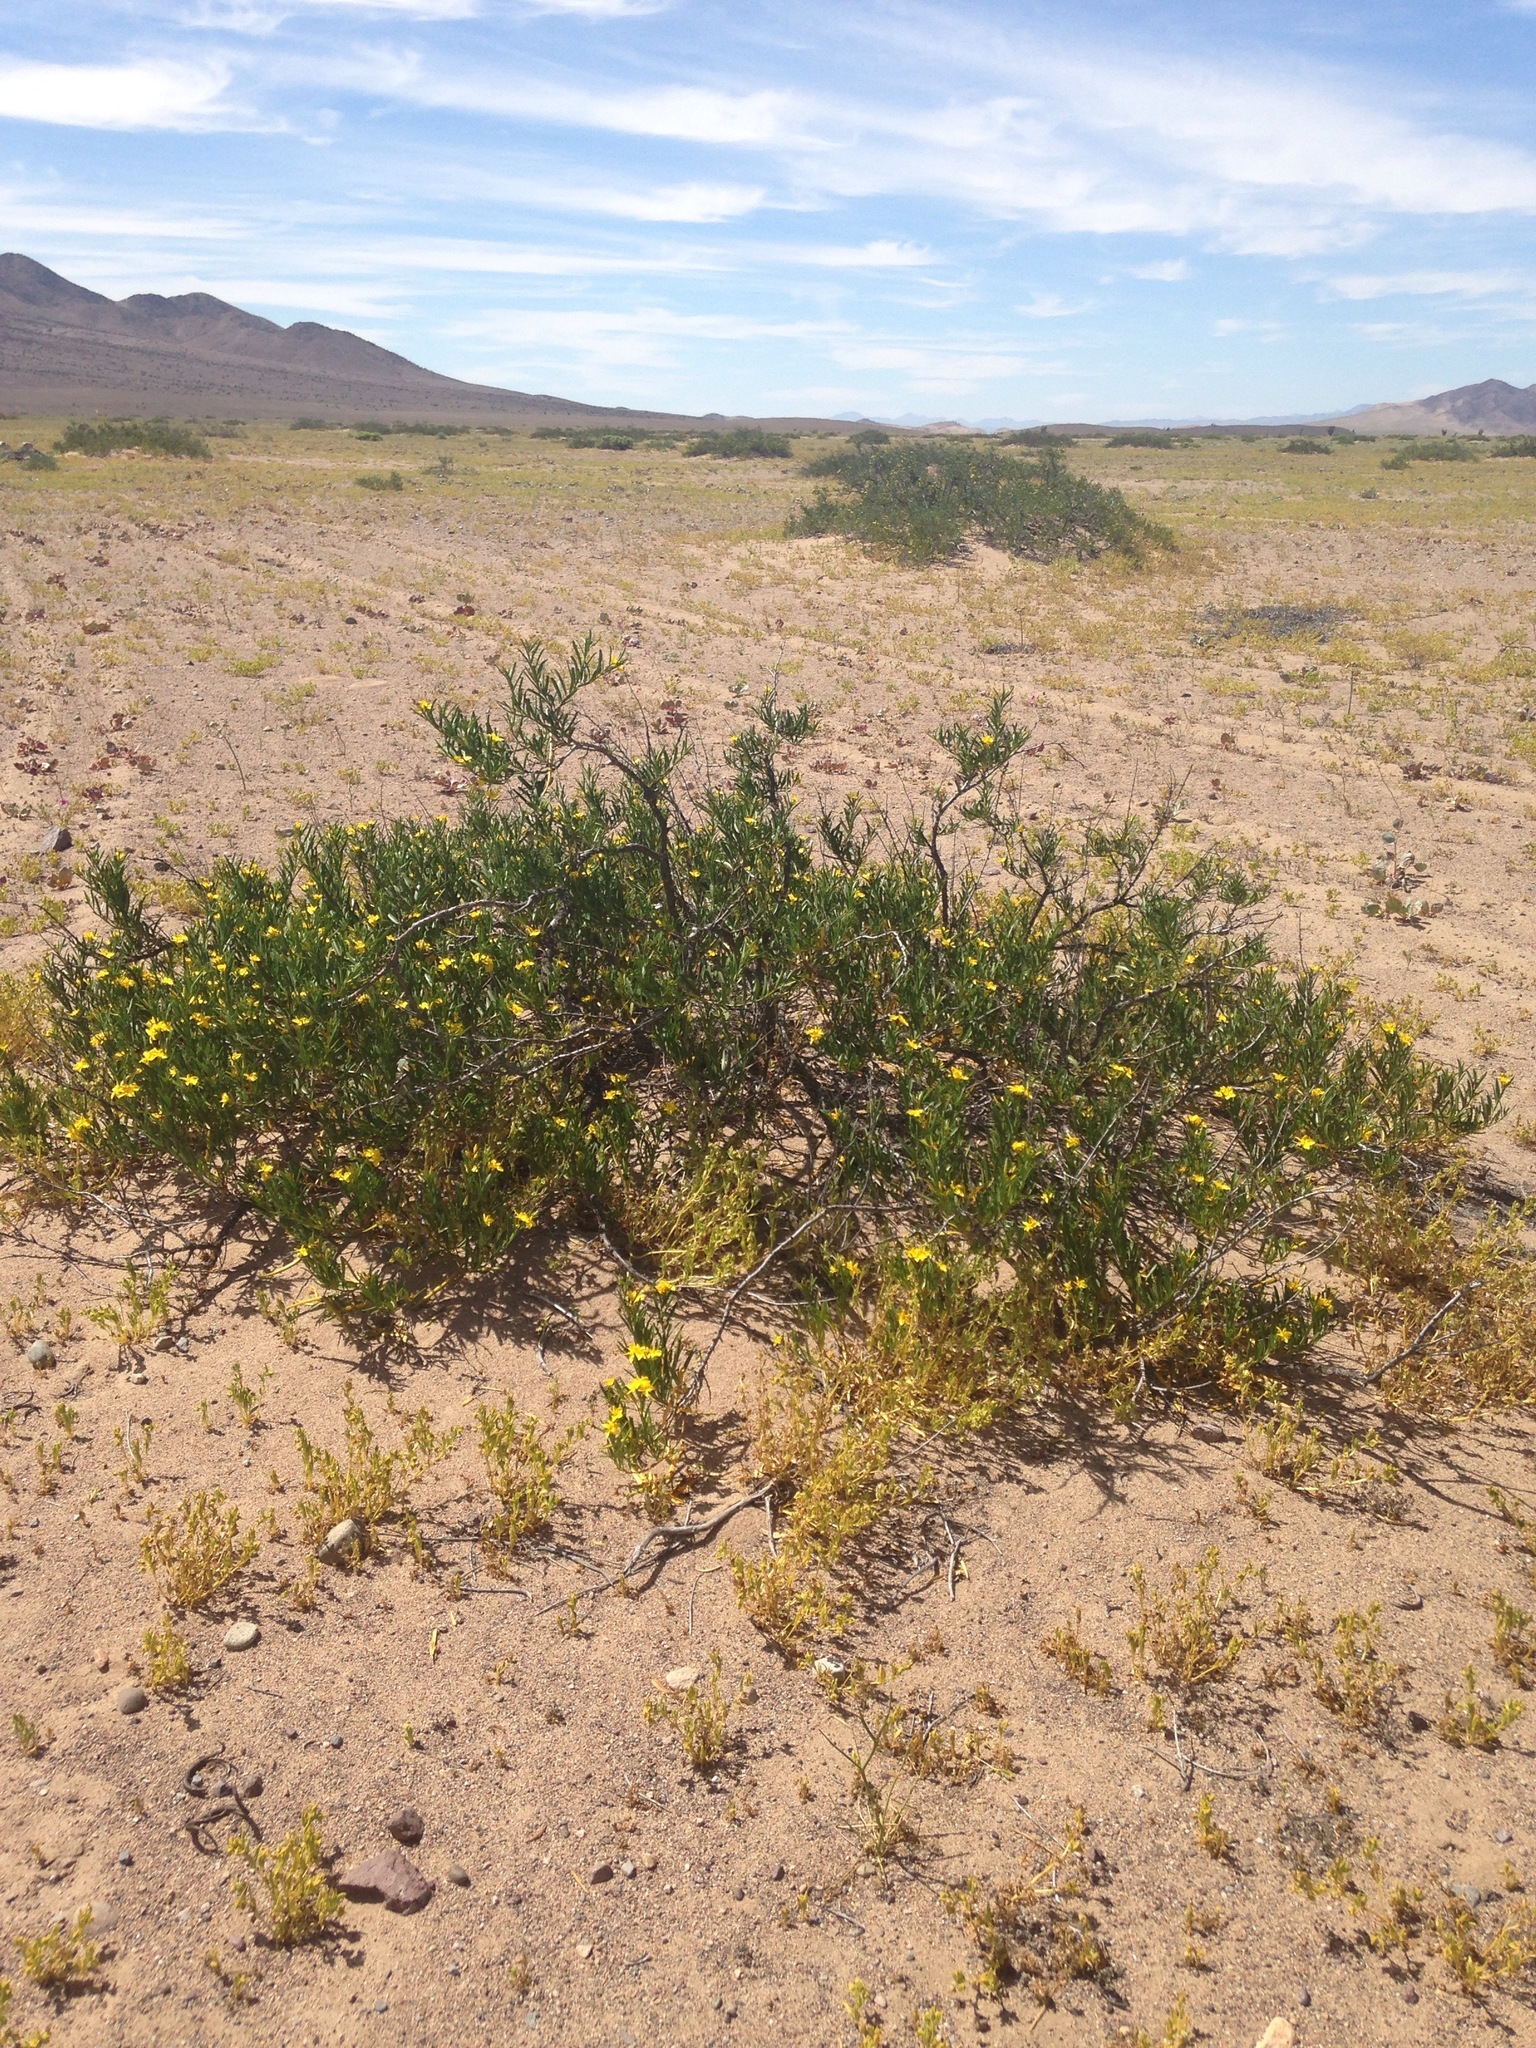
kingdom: Plantae
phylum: Tracheophyta
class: Magnoliopsida
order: Gentianales
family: Apocynaceae
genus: Skytanthus
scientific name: Skytanthus acutus
